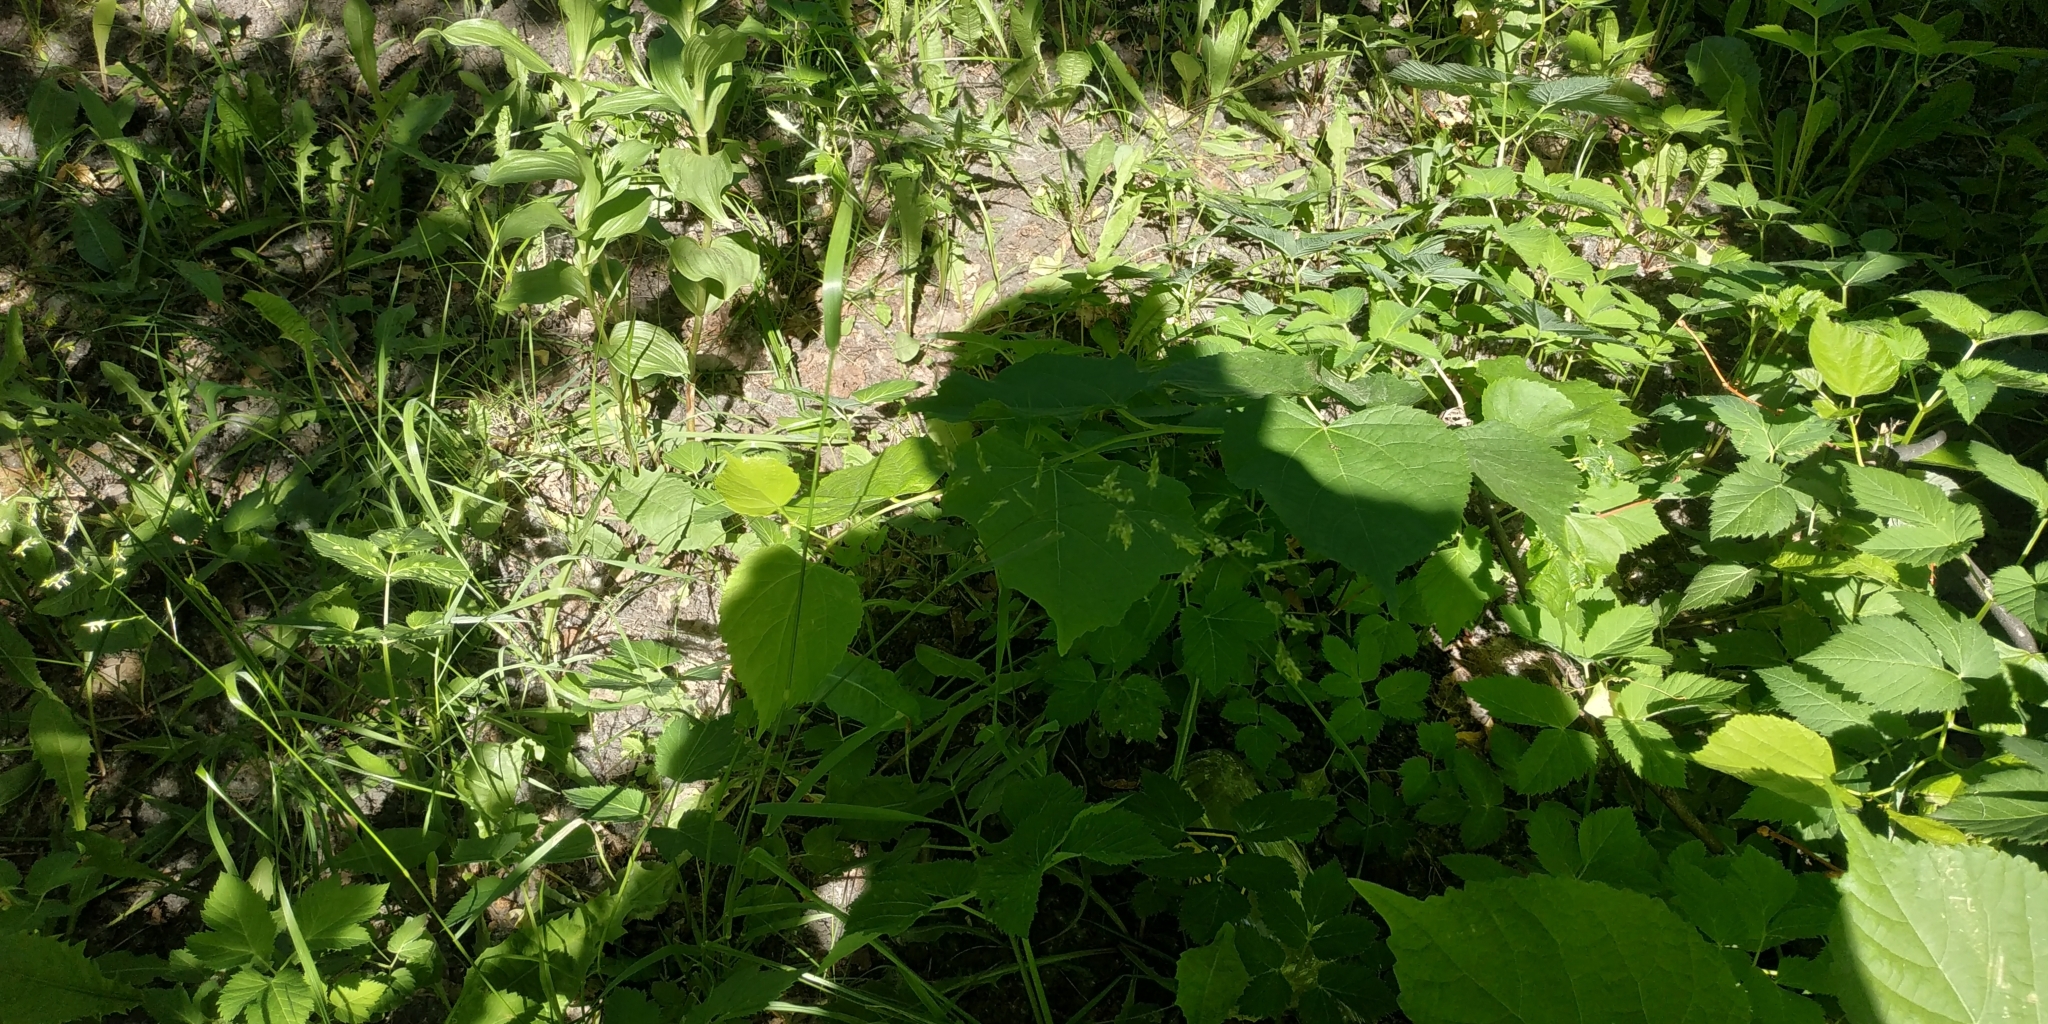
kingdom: Plantae
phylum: Tracheophyta
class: Liliopsida
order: Poales
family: Poaceae
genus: Lolium
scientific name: Lolium pratense
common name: Dover grass
